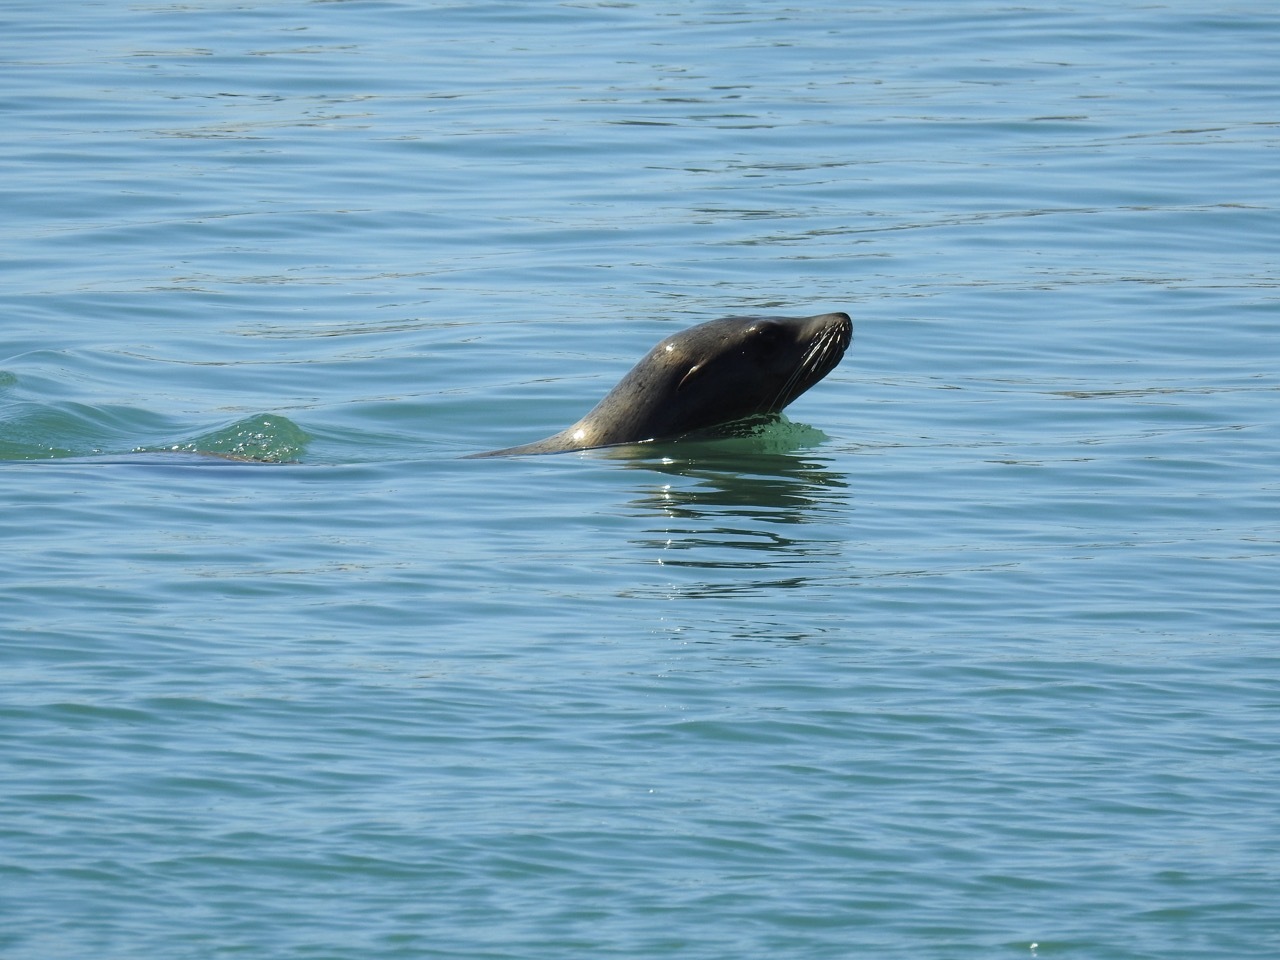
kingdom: Animalia
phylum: Chordata
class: Mammalia
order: Carnivora
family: Otariidae
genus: Zalophus
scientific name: Zalophus californianus
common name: California sea lion
